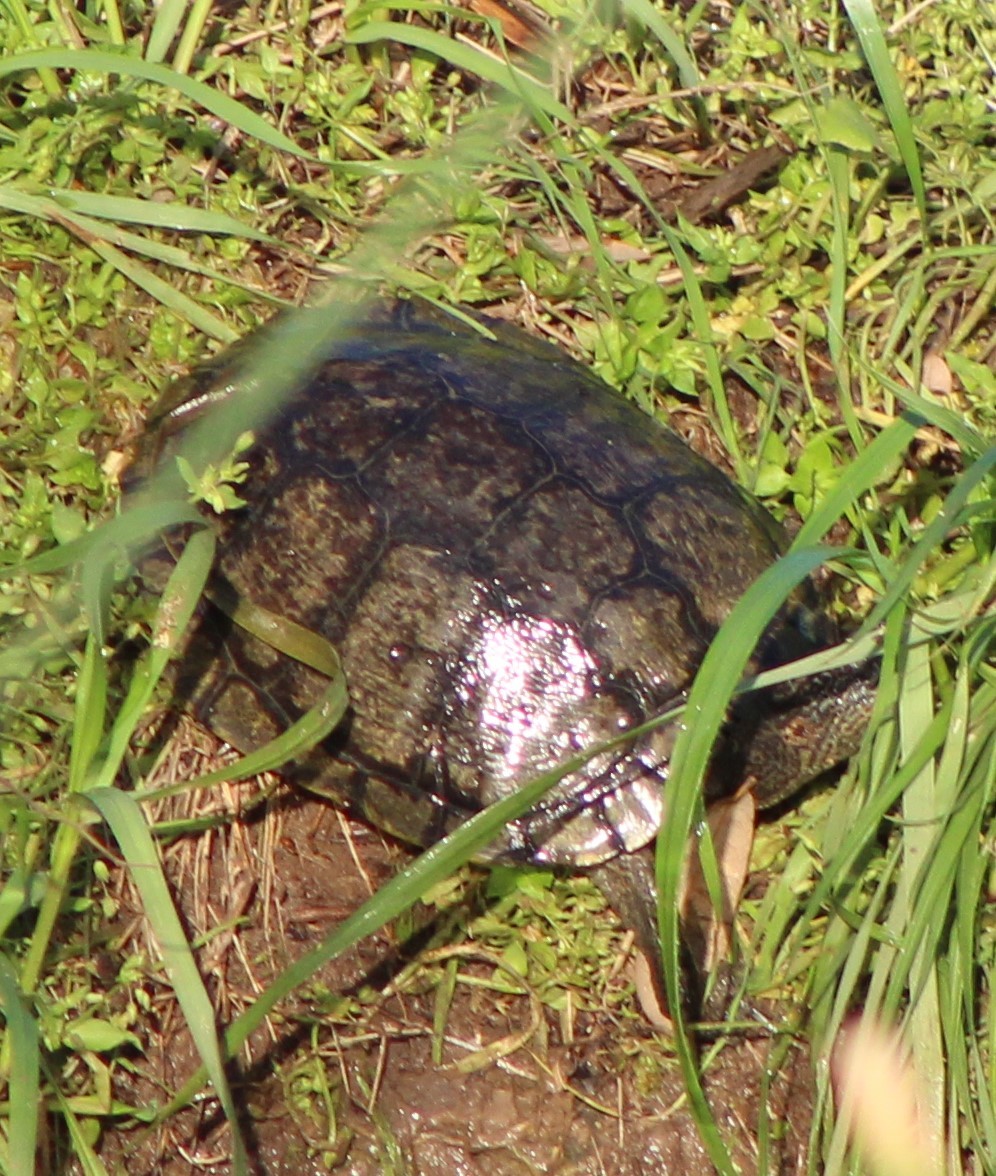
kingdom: Animalia
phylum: Chordata
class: Testudines
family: Emydidae
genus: Trachemys
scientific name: Trachemys scripta
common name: Slider
